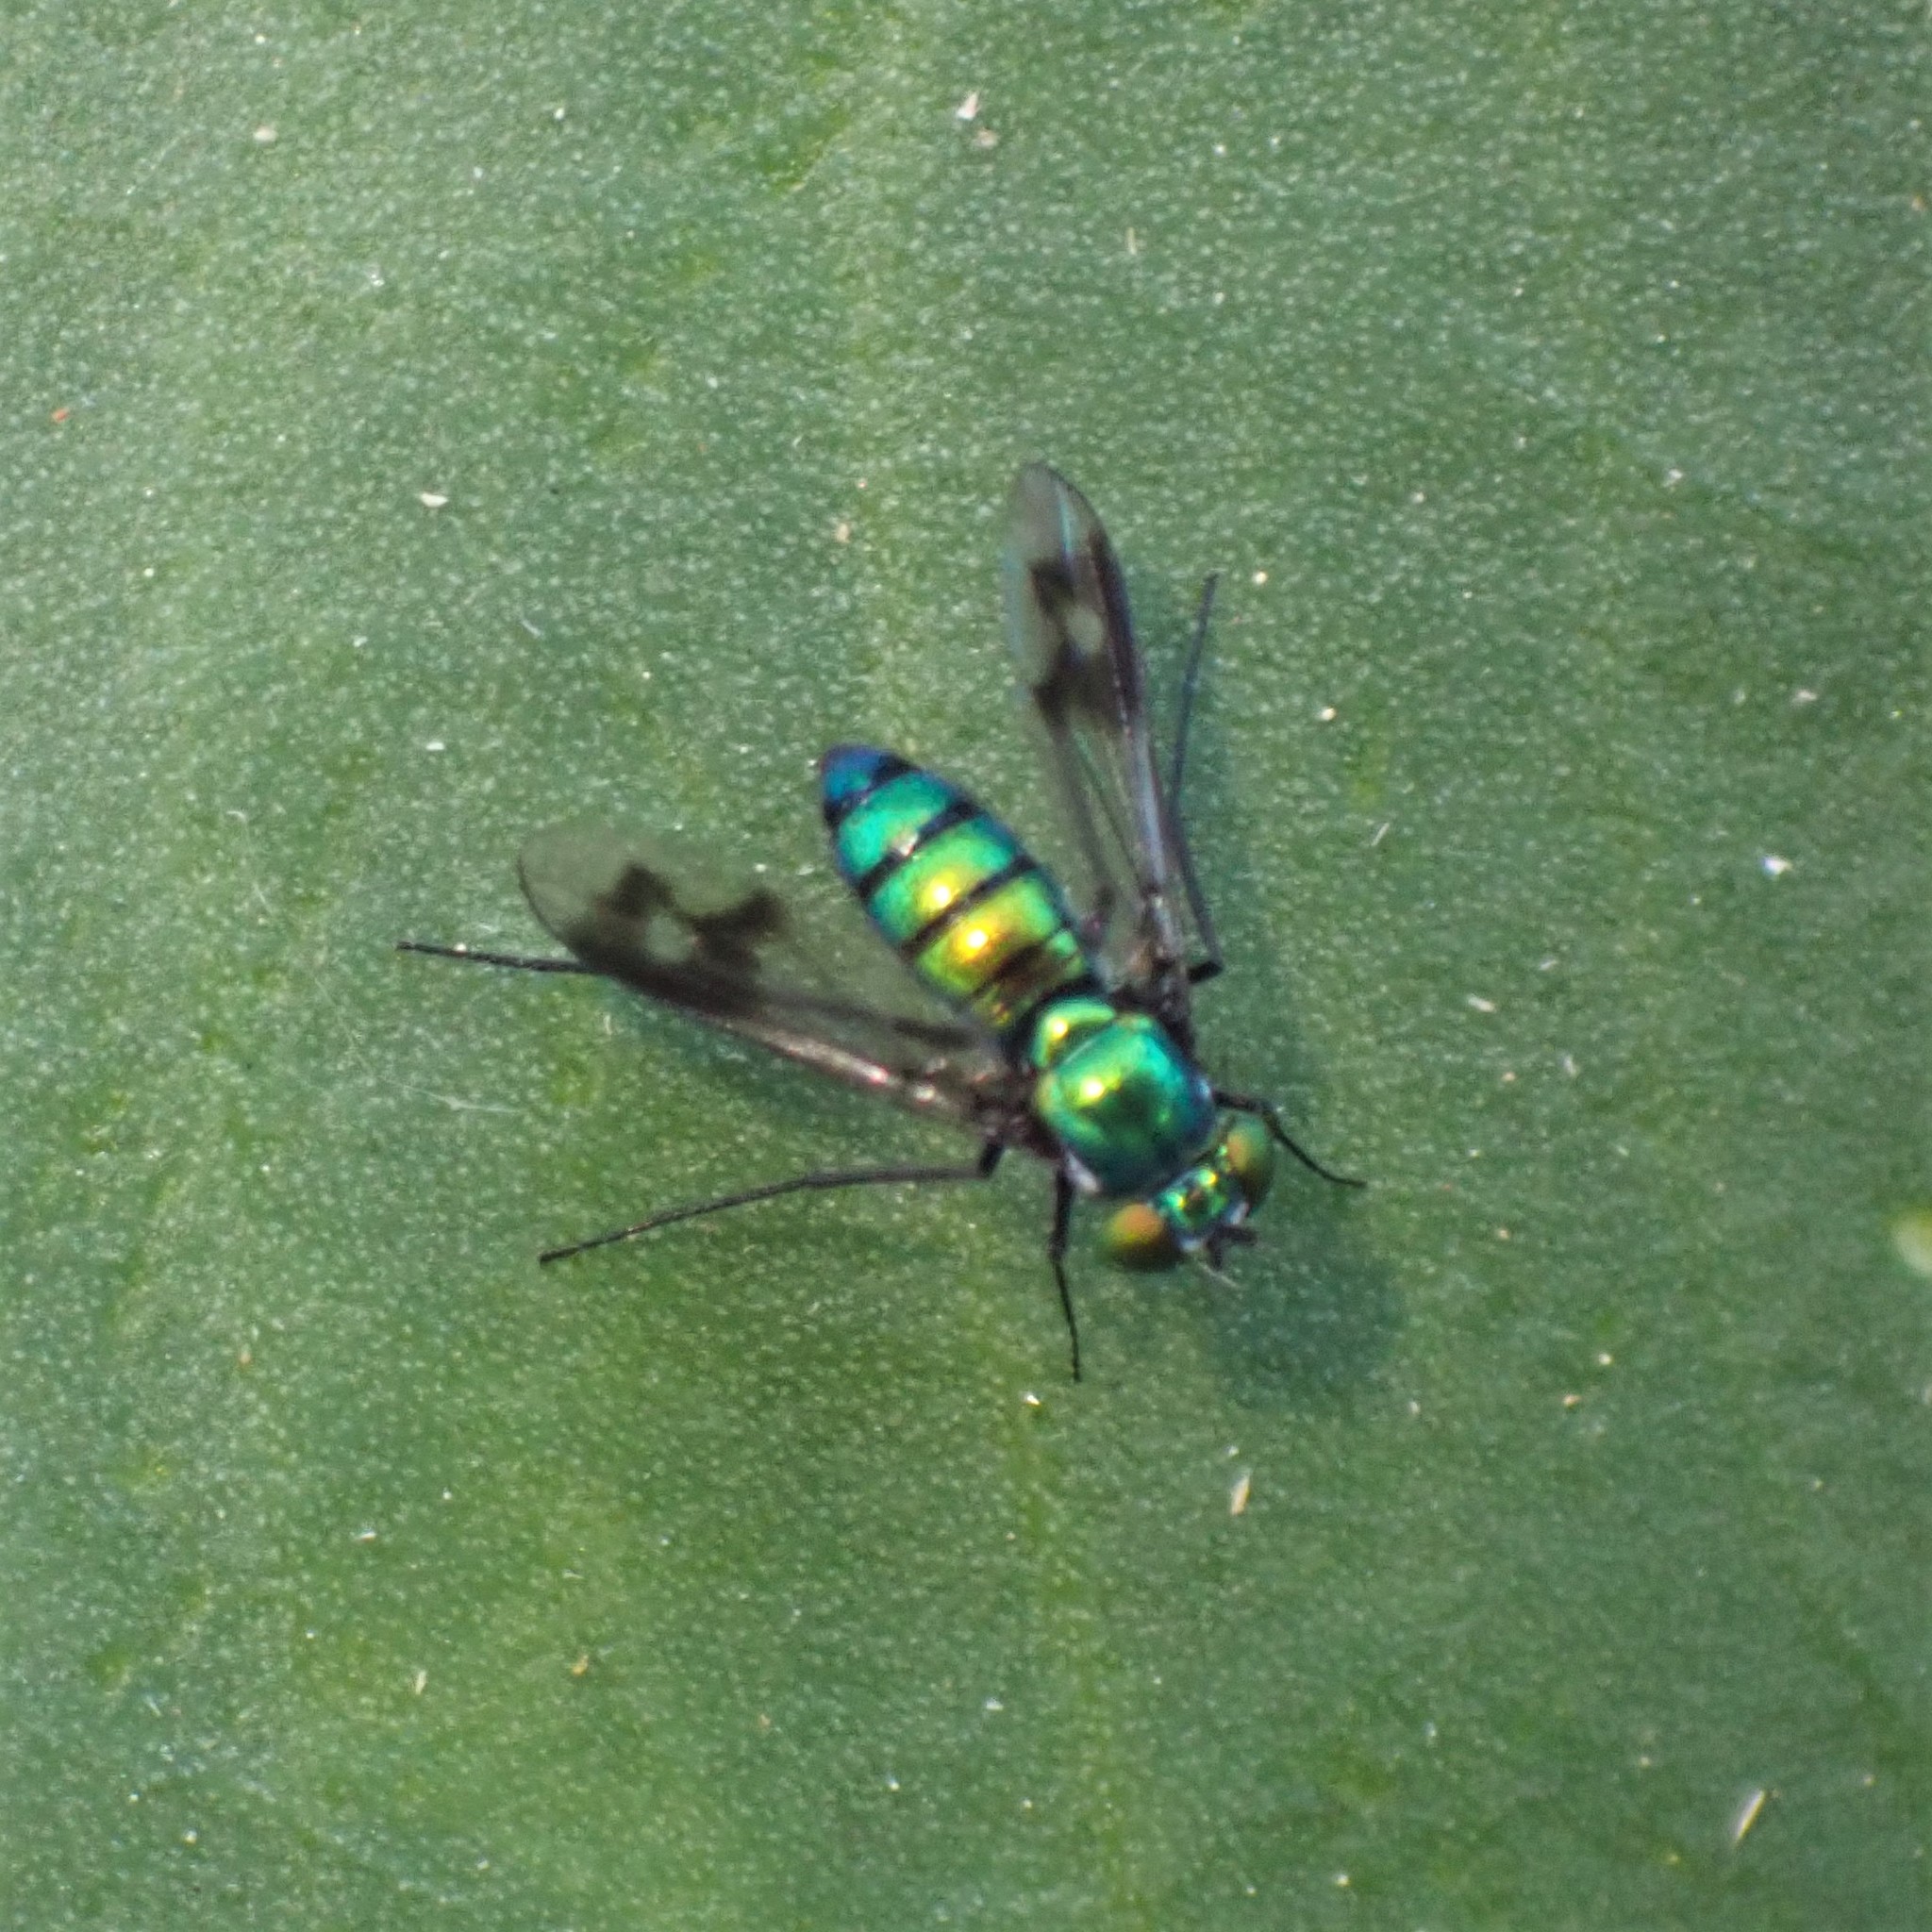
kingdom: Animalia
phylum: Arthropoda
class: Insecta
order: Diptera
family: Dolichopodidae
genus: Condylostylus
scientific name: Condylostylus occidentalis
